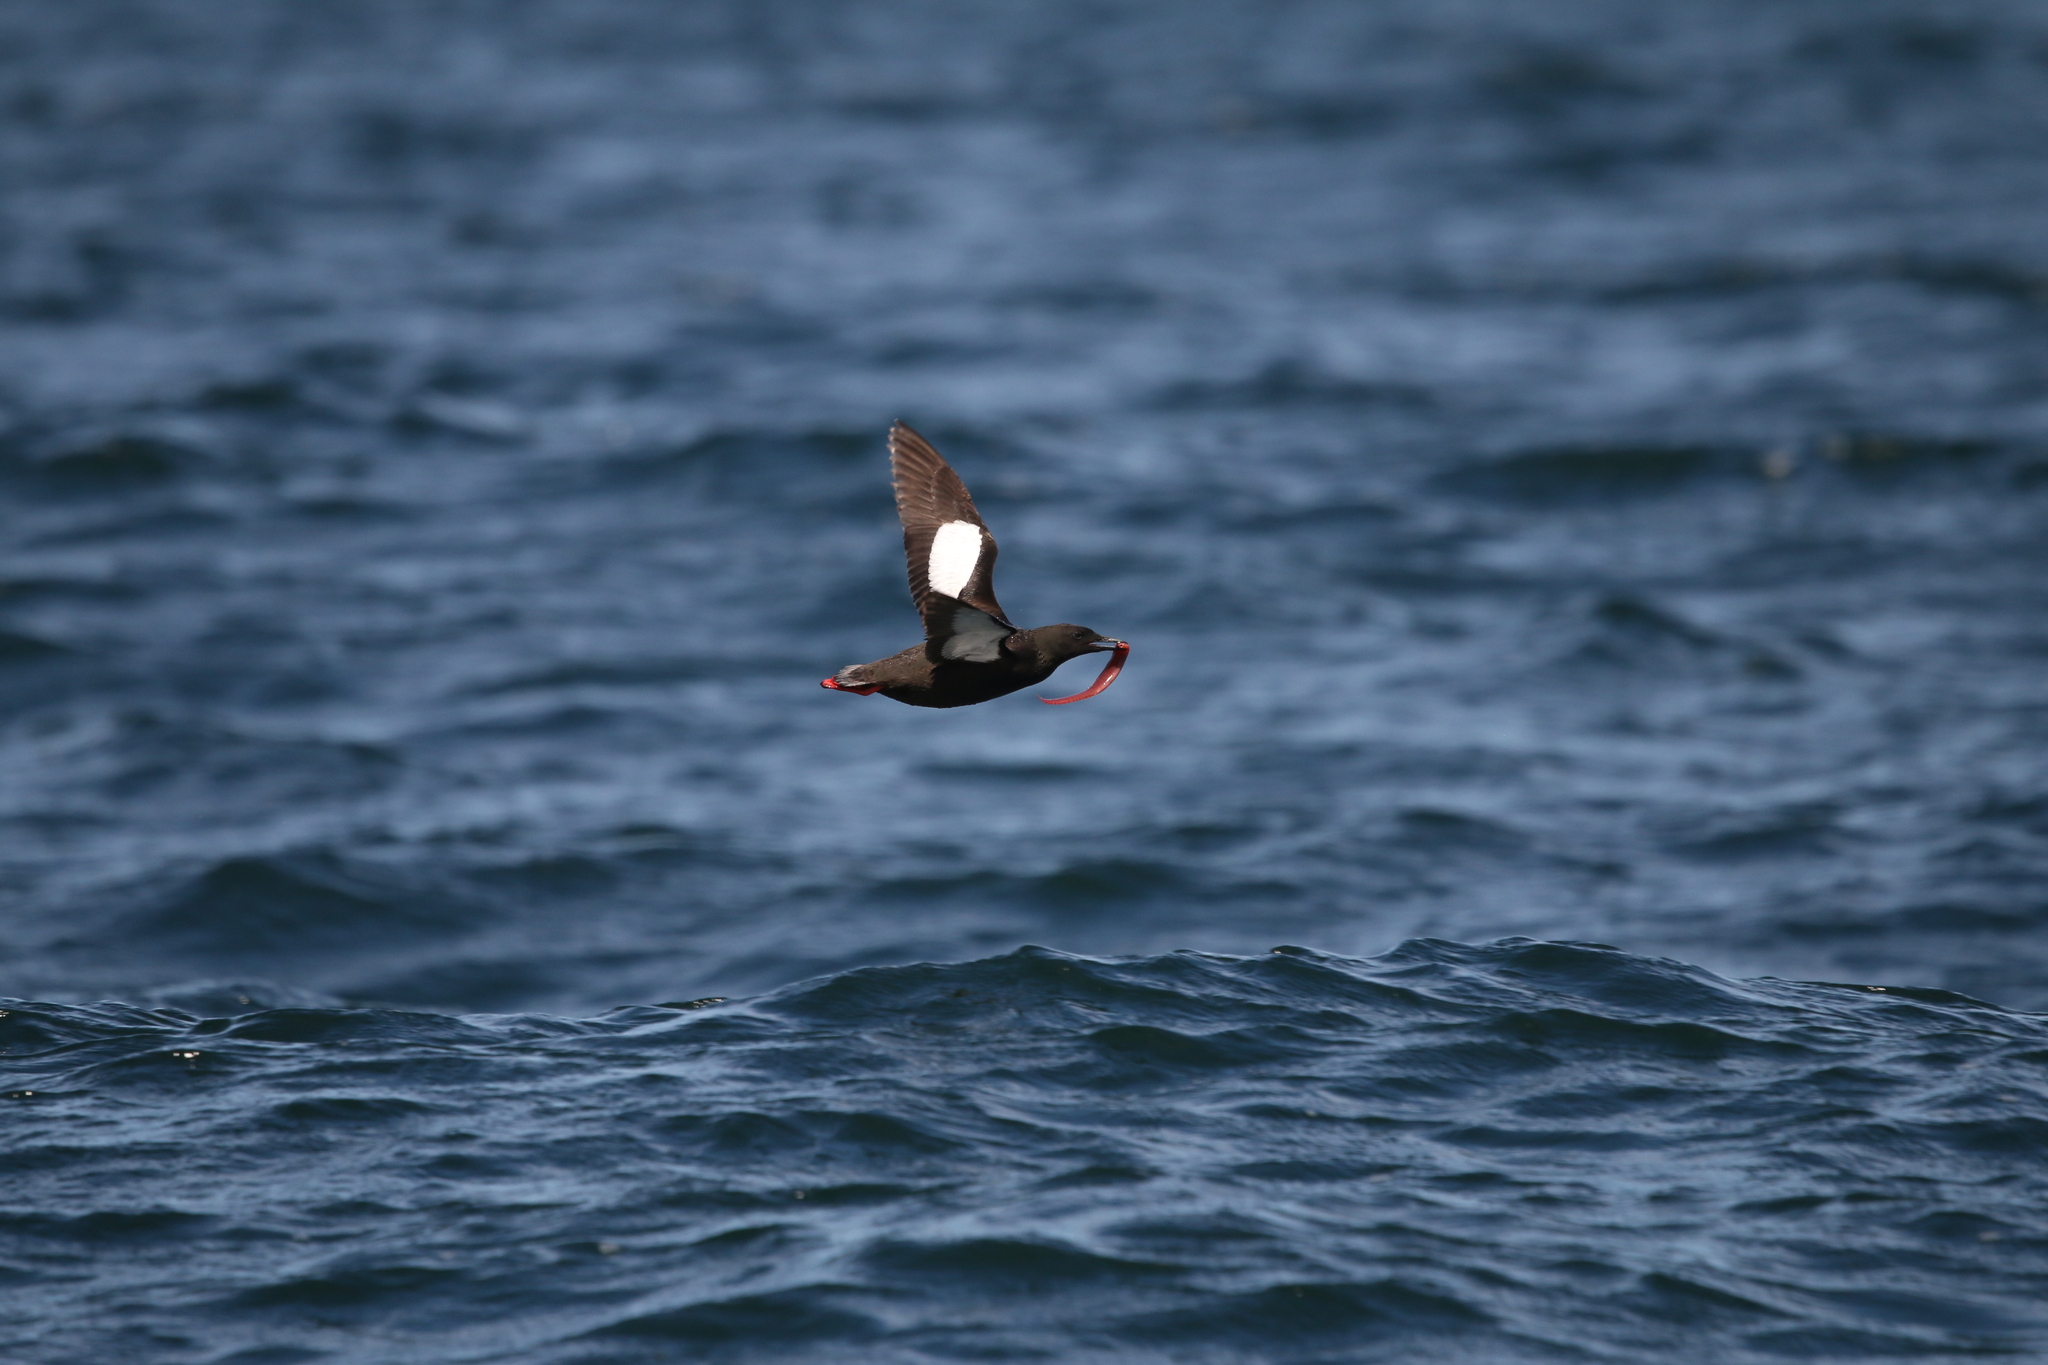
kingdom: Animalia
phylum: Chordata
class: Aves
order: Charadriiformes
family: Alcidae
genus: Cepphus
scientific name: Cepphus grylle
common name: Black guillemot
